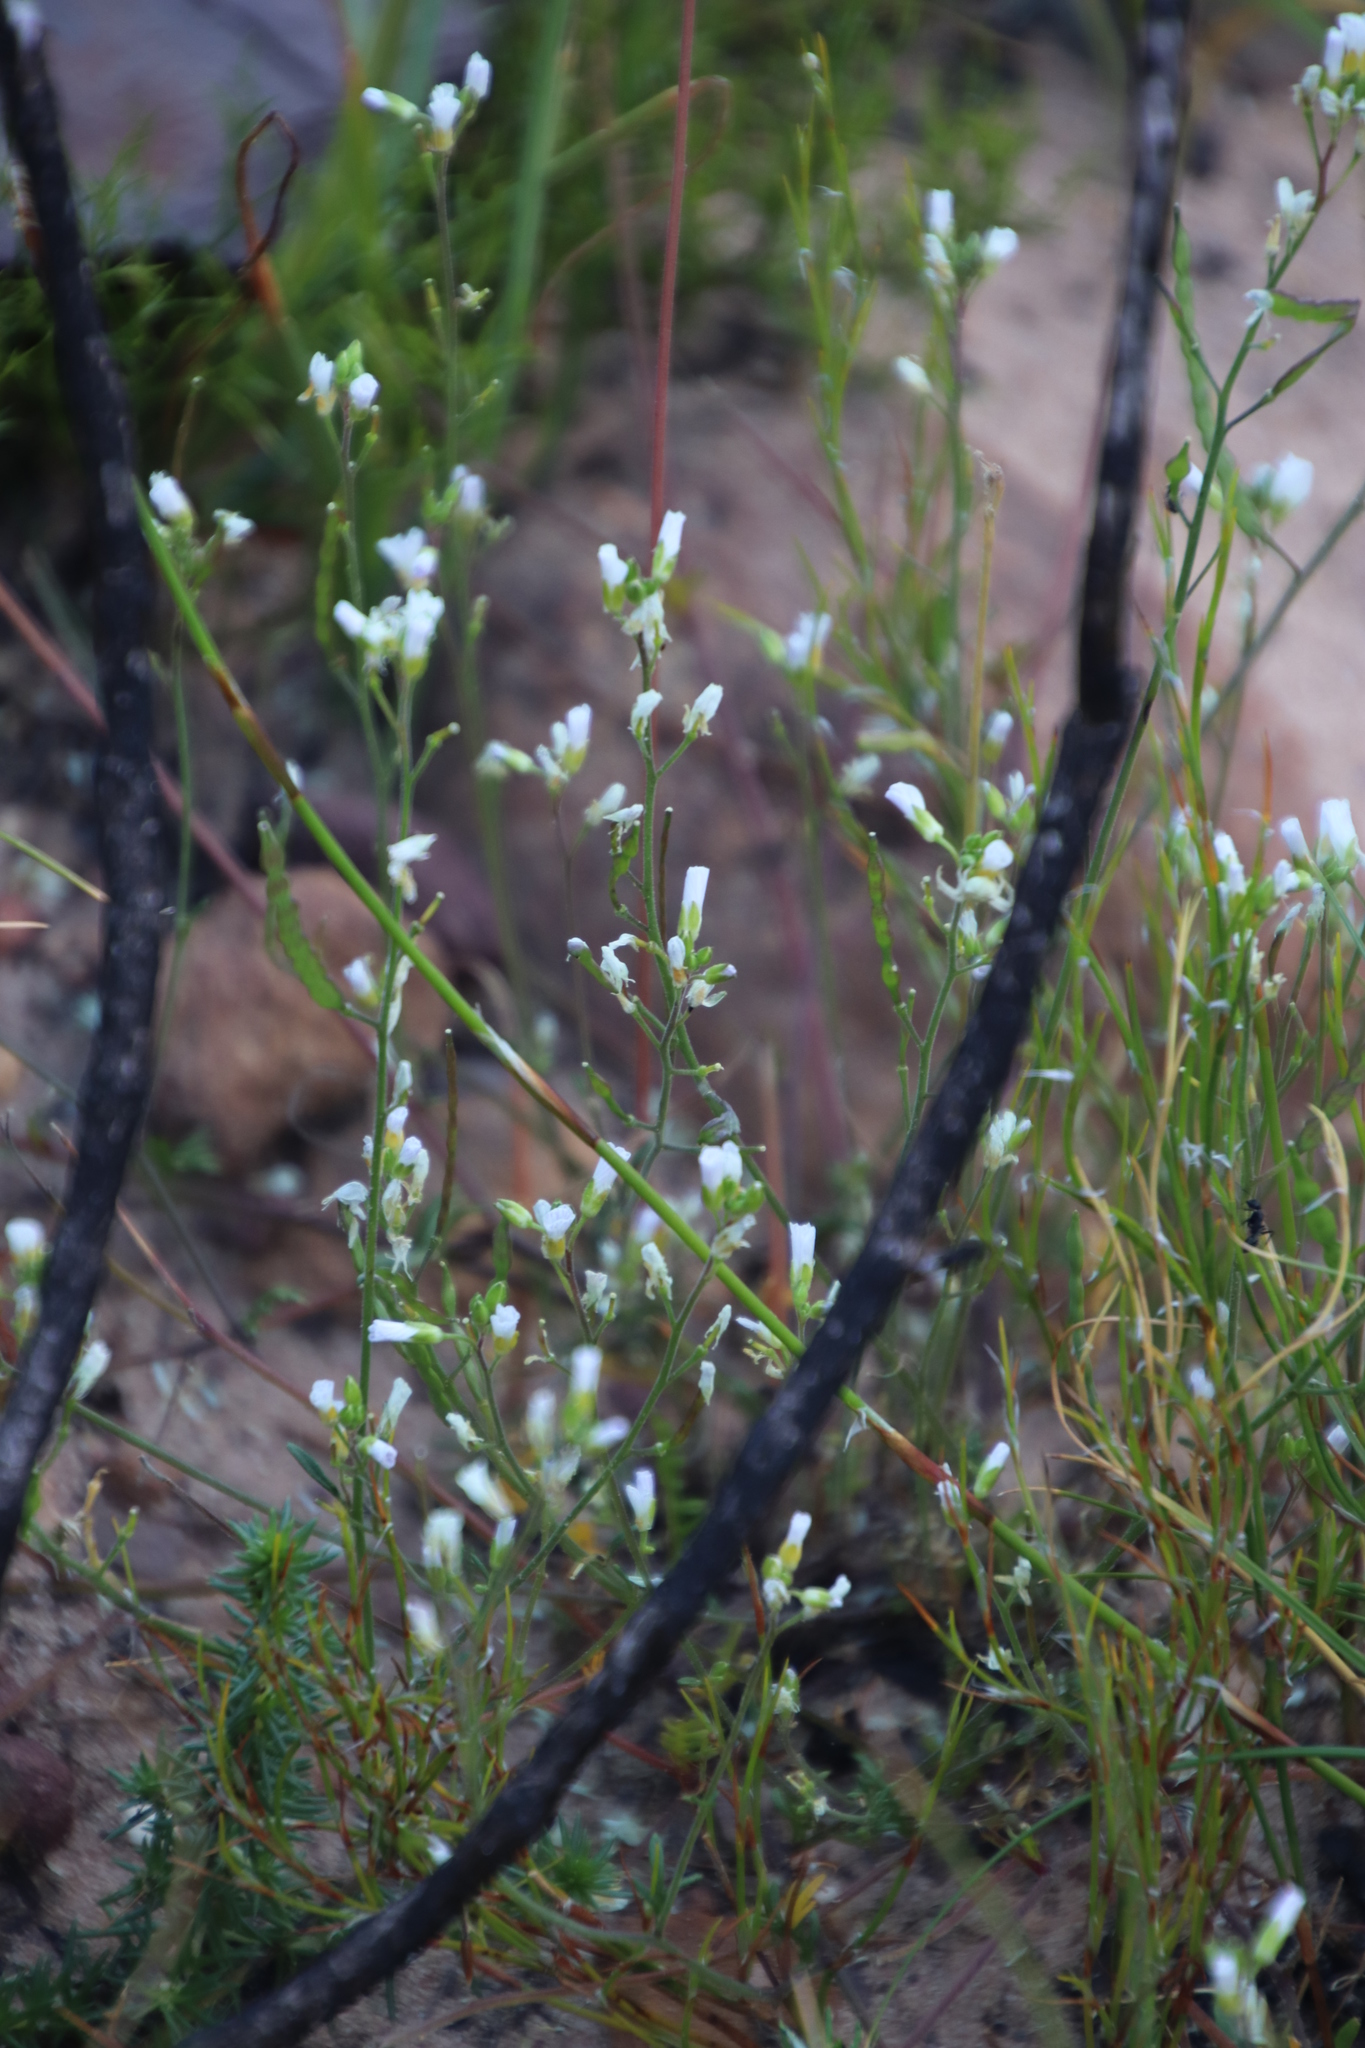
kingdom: Plantae
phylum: Tracheophyta
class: Magnoliopsida
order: Brassicales
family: Brassicaceae
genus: Heliophila
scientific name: Heliophila concatenata
